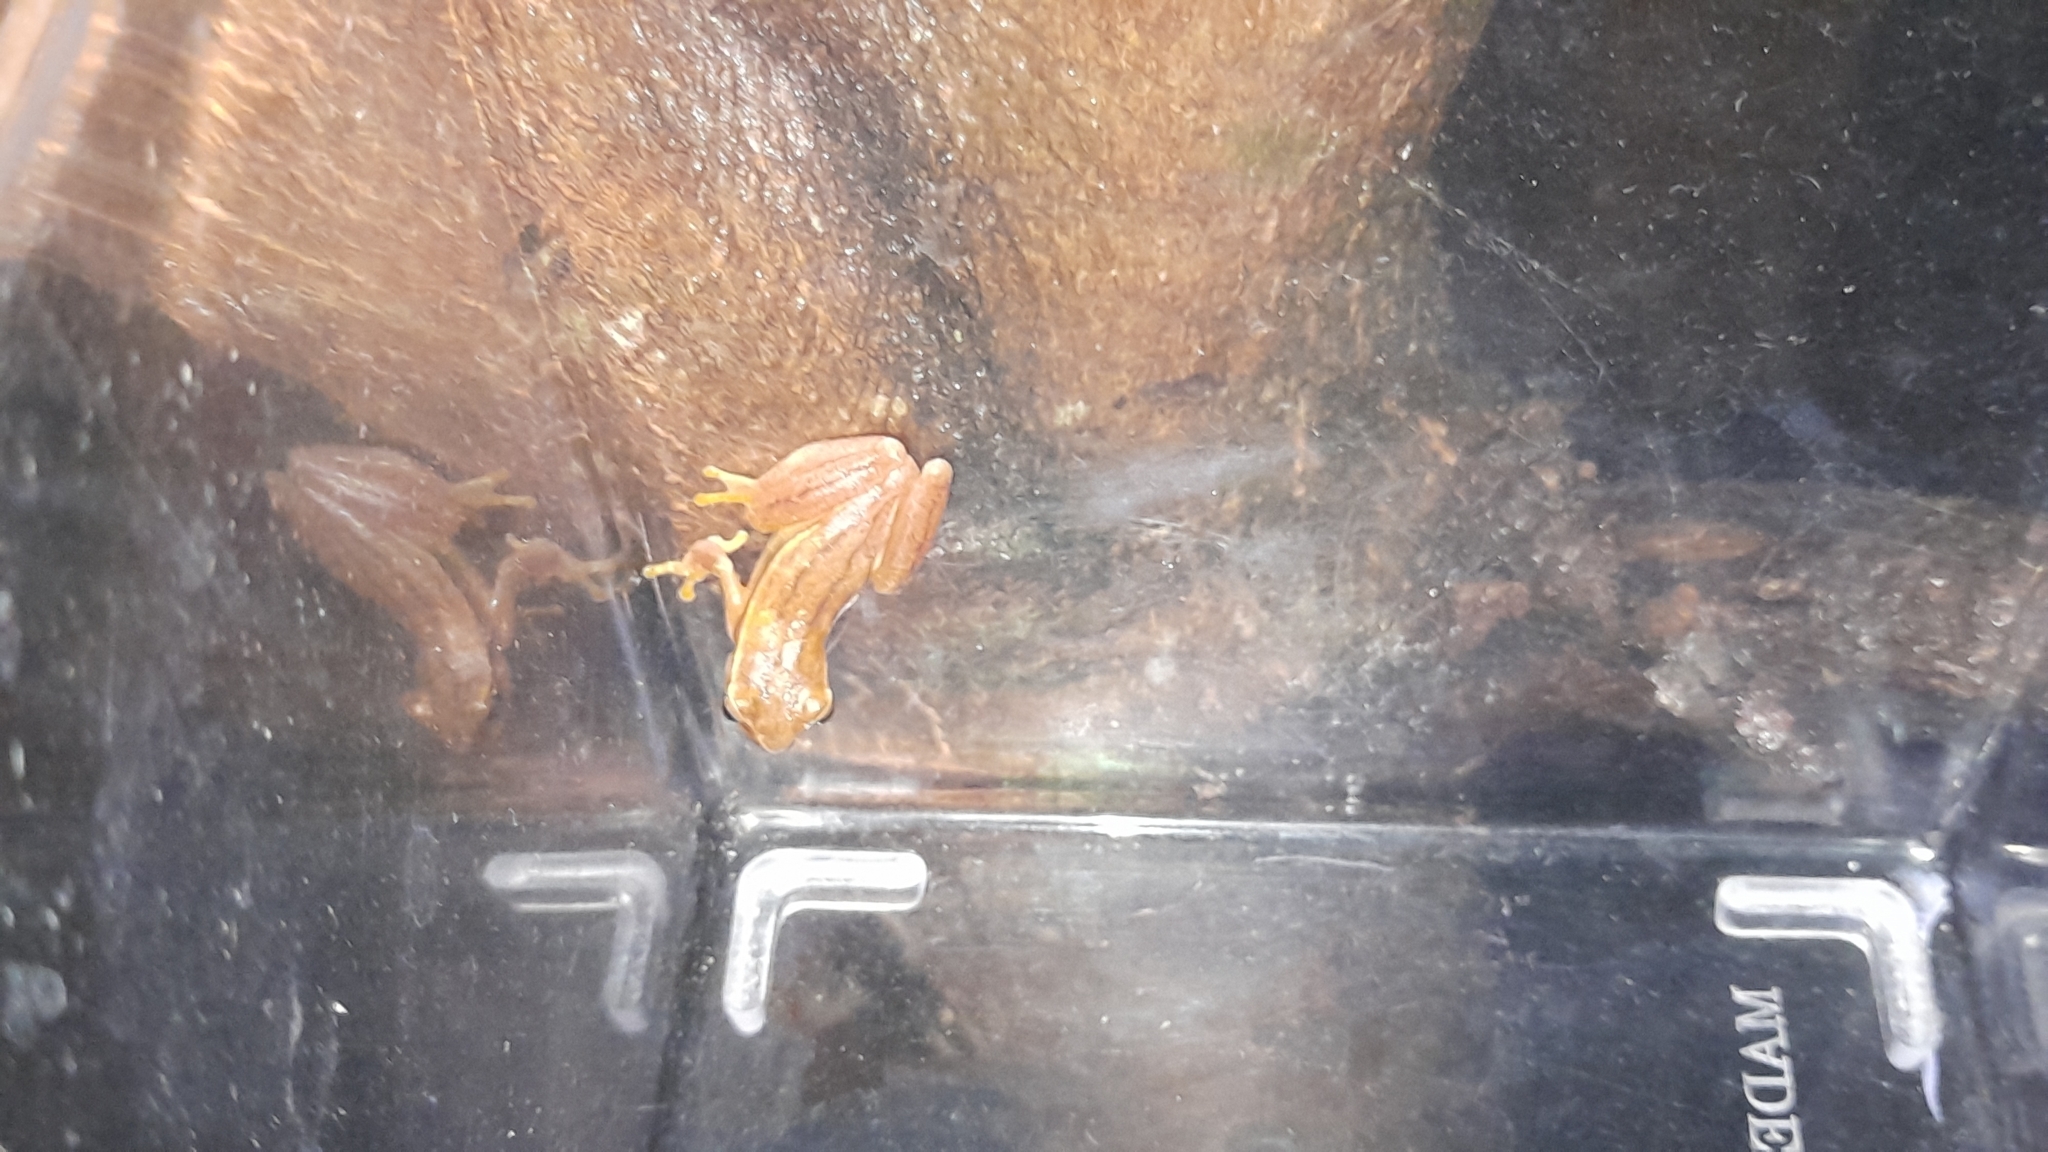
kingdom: Animalia
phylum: Chordata
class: Amphibia
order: Anura
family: Hylidae
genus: Dendropsophus
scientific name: Dendropsophus microcephalus
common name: Small-headed treefrog
